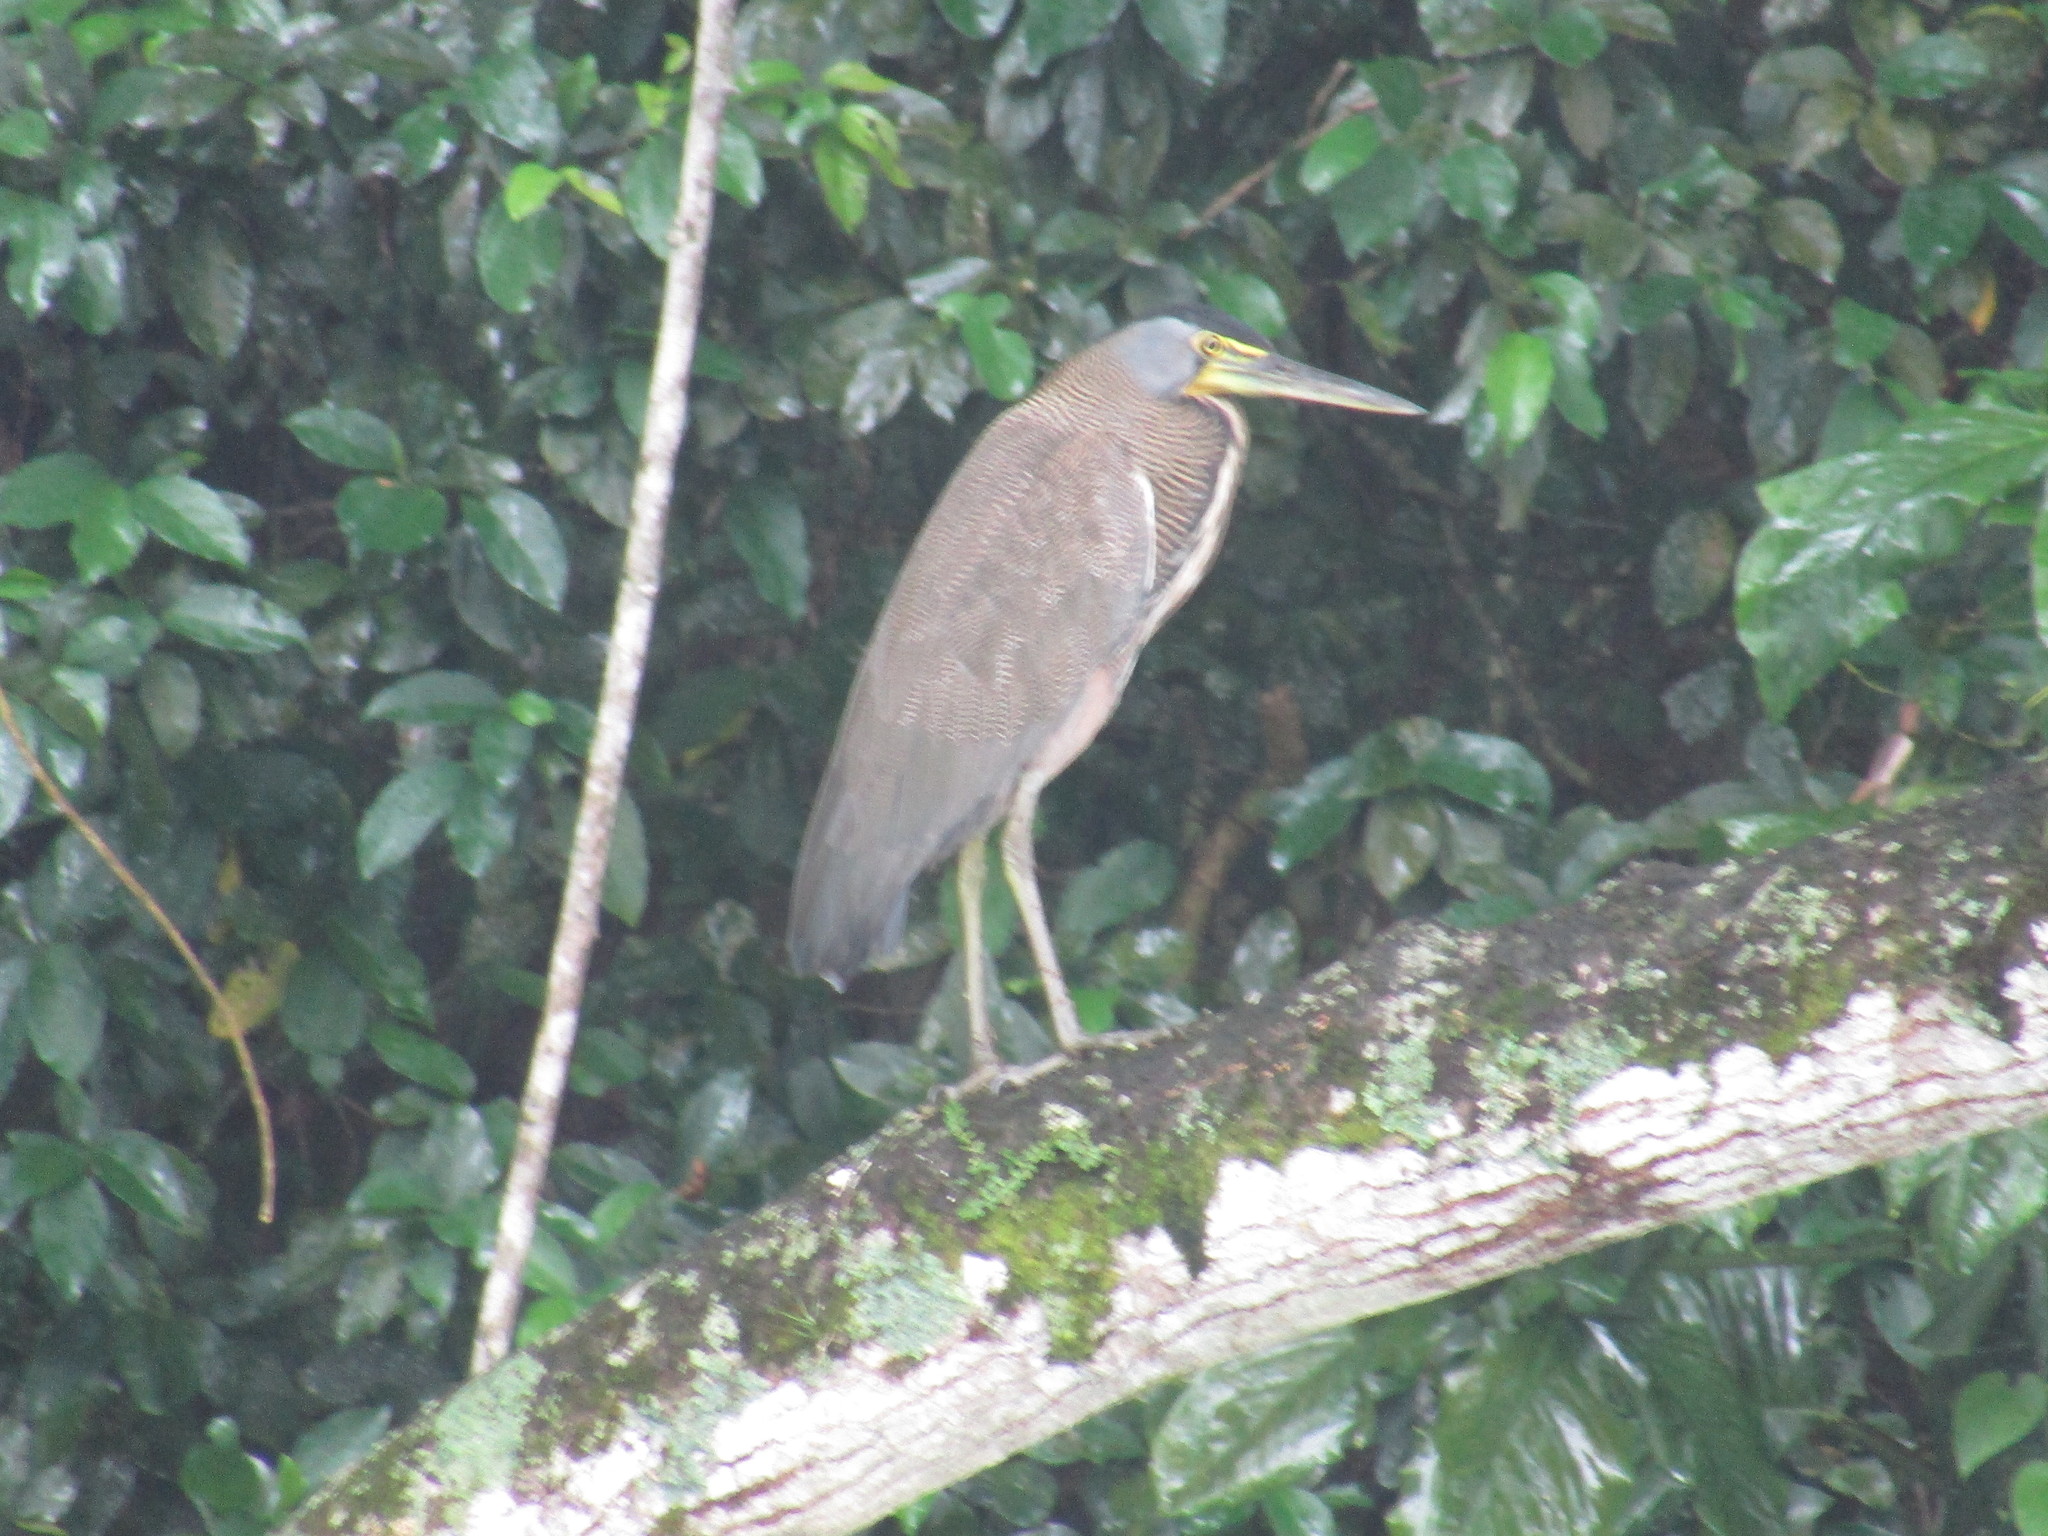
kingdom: Animalia
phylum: Chordata
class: Aves
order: Pelecaniformes
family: Ardeidae
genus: Tigrisoma
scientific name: Tigrisoma mexicanum
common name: Bare-throated tiger-heron
